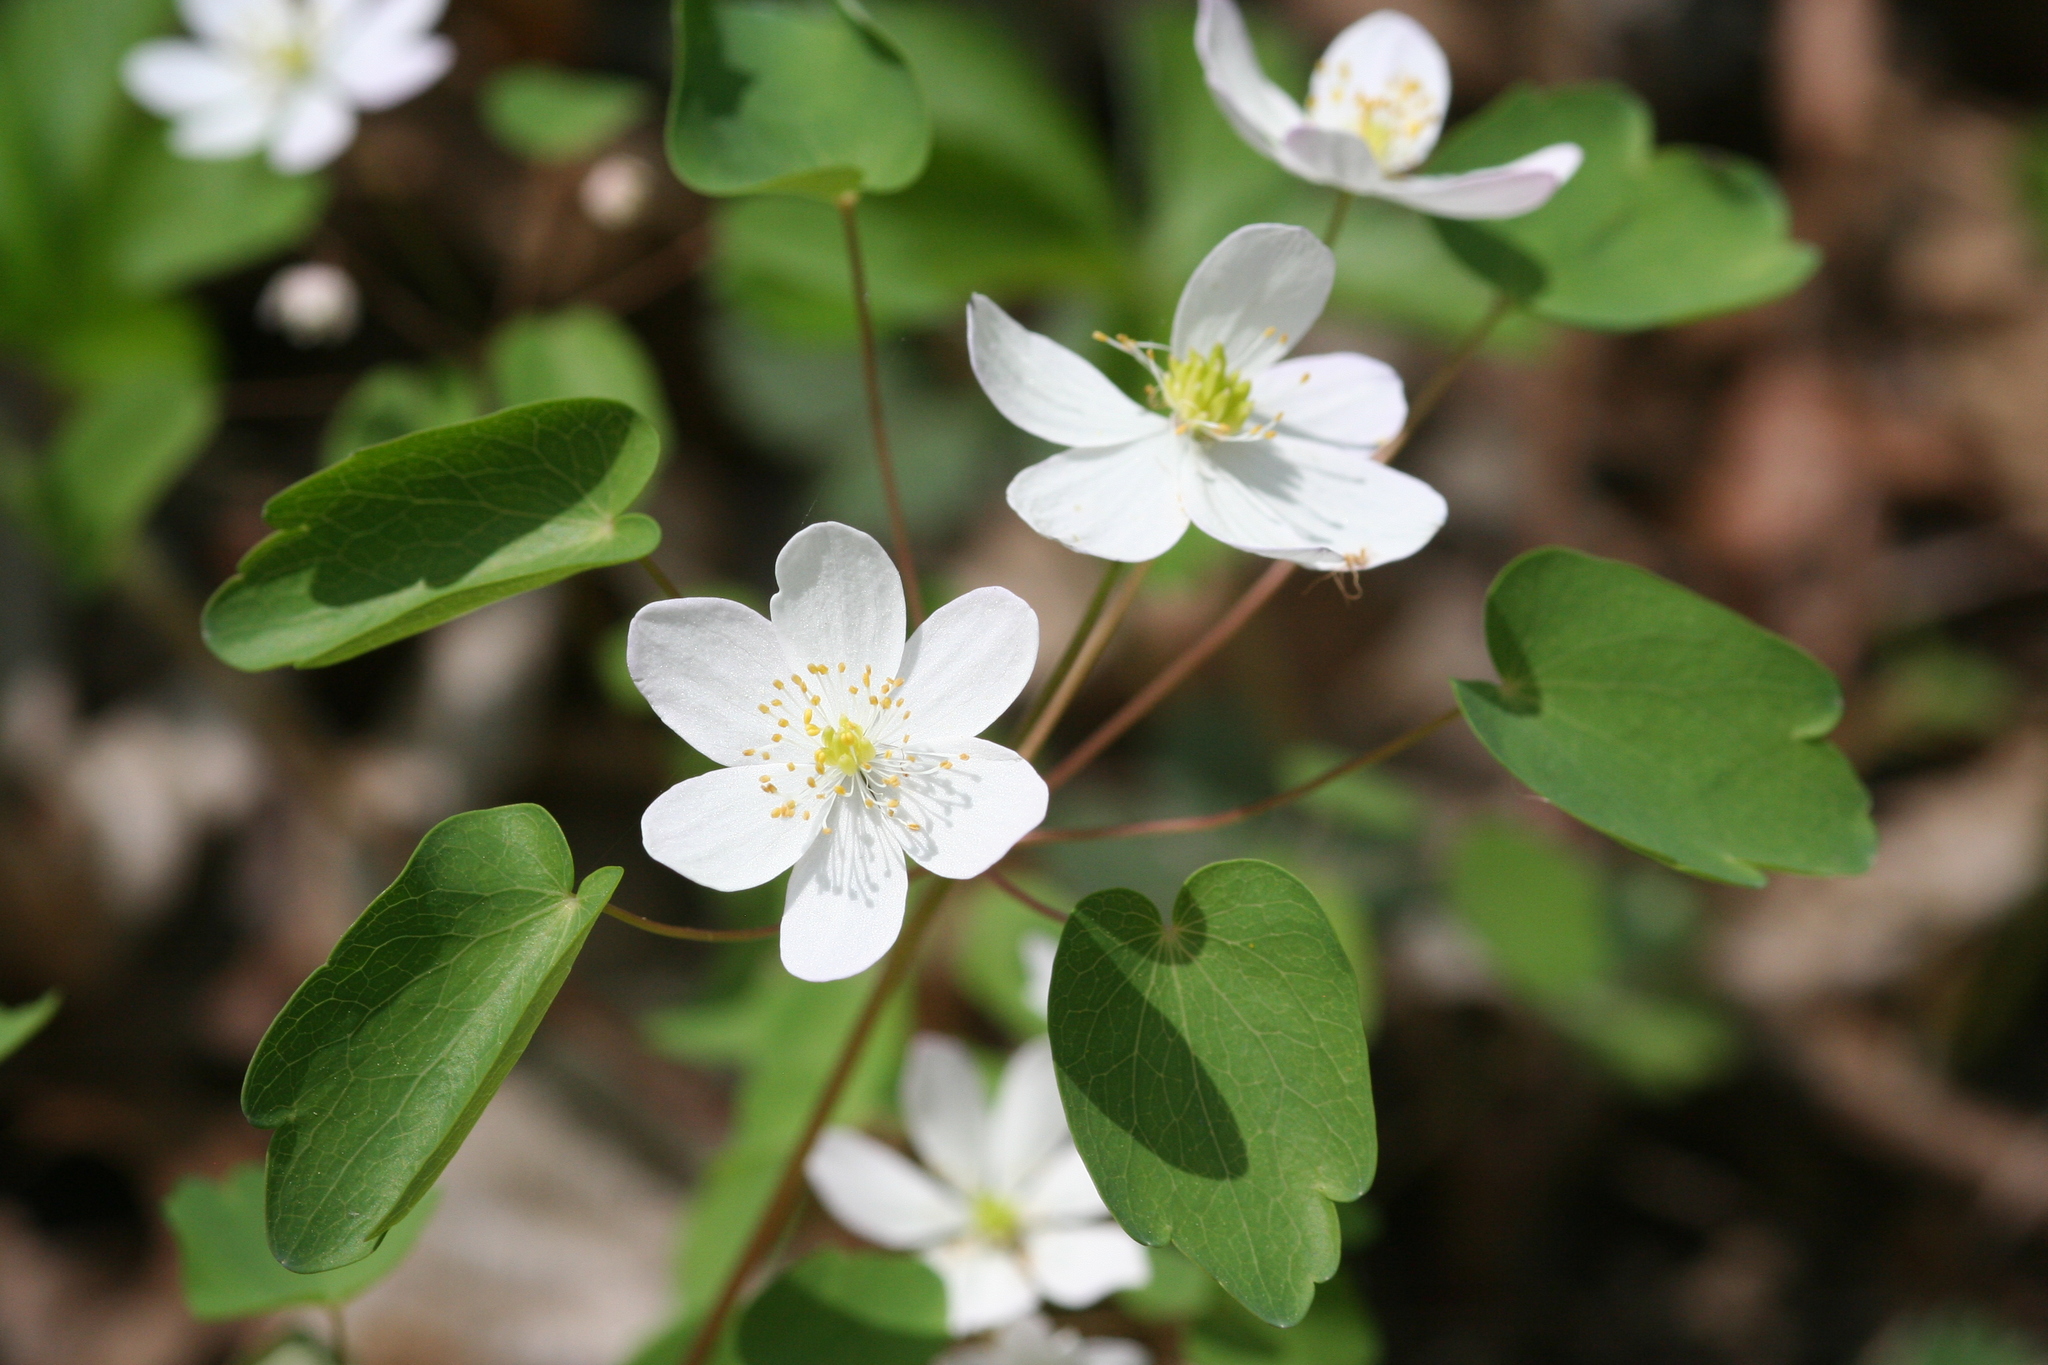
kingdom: Plantae
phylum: Tracheophyta
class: Magnoliopsida
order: Ranunculales
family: Ranunculaceae
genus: Thalictrum
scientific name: Thalictrum thalictroides
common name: Rue-anemone
